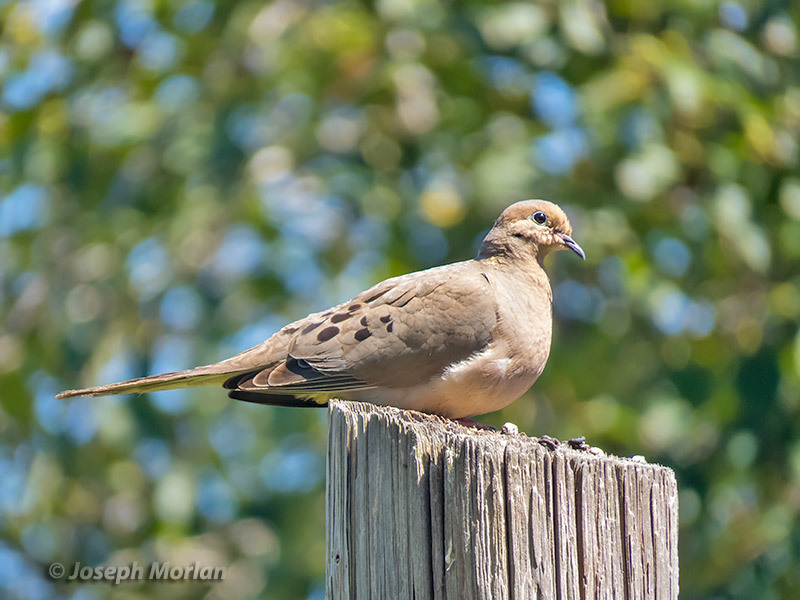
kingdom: Animalia
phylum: Chordata
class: Aves
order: Columbiformes
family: Columbidae
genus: Zenaida
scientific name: Zenaida macroura
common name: Mourning dove
